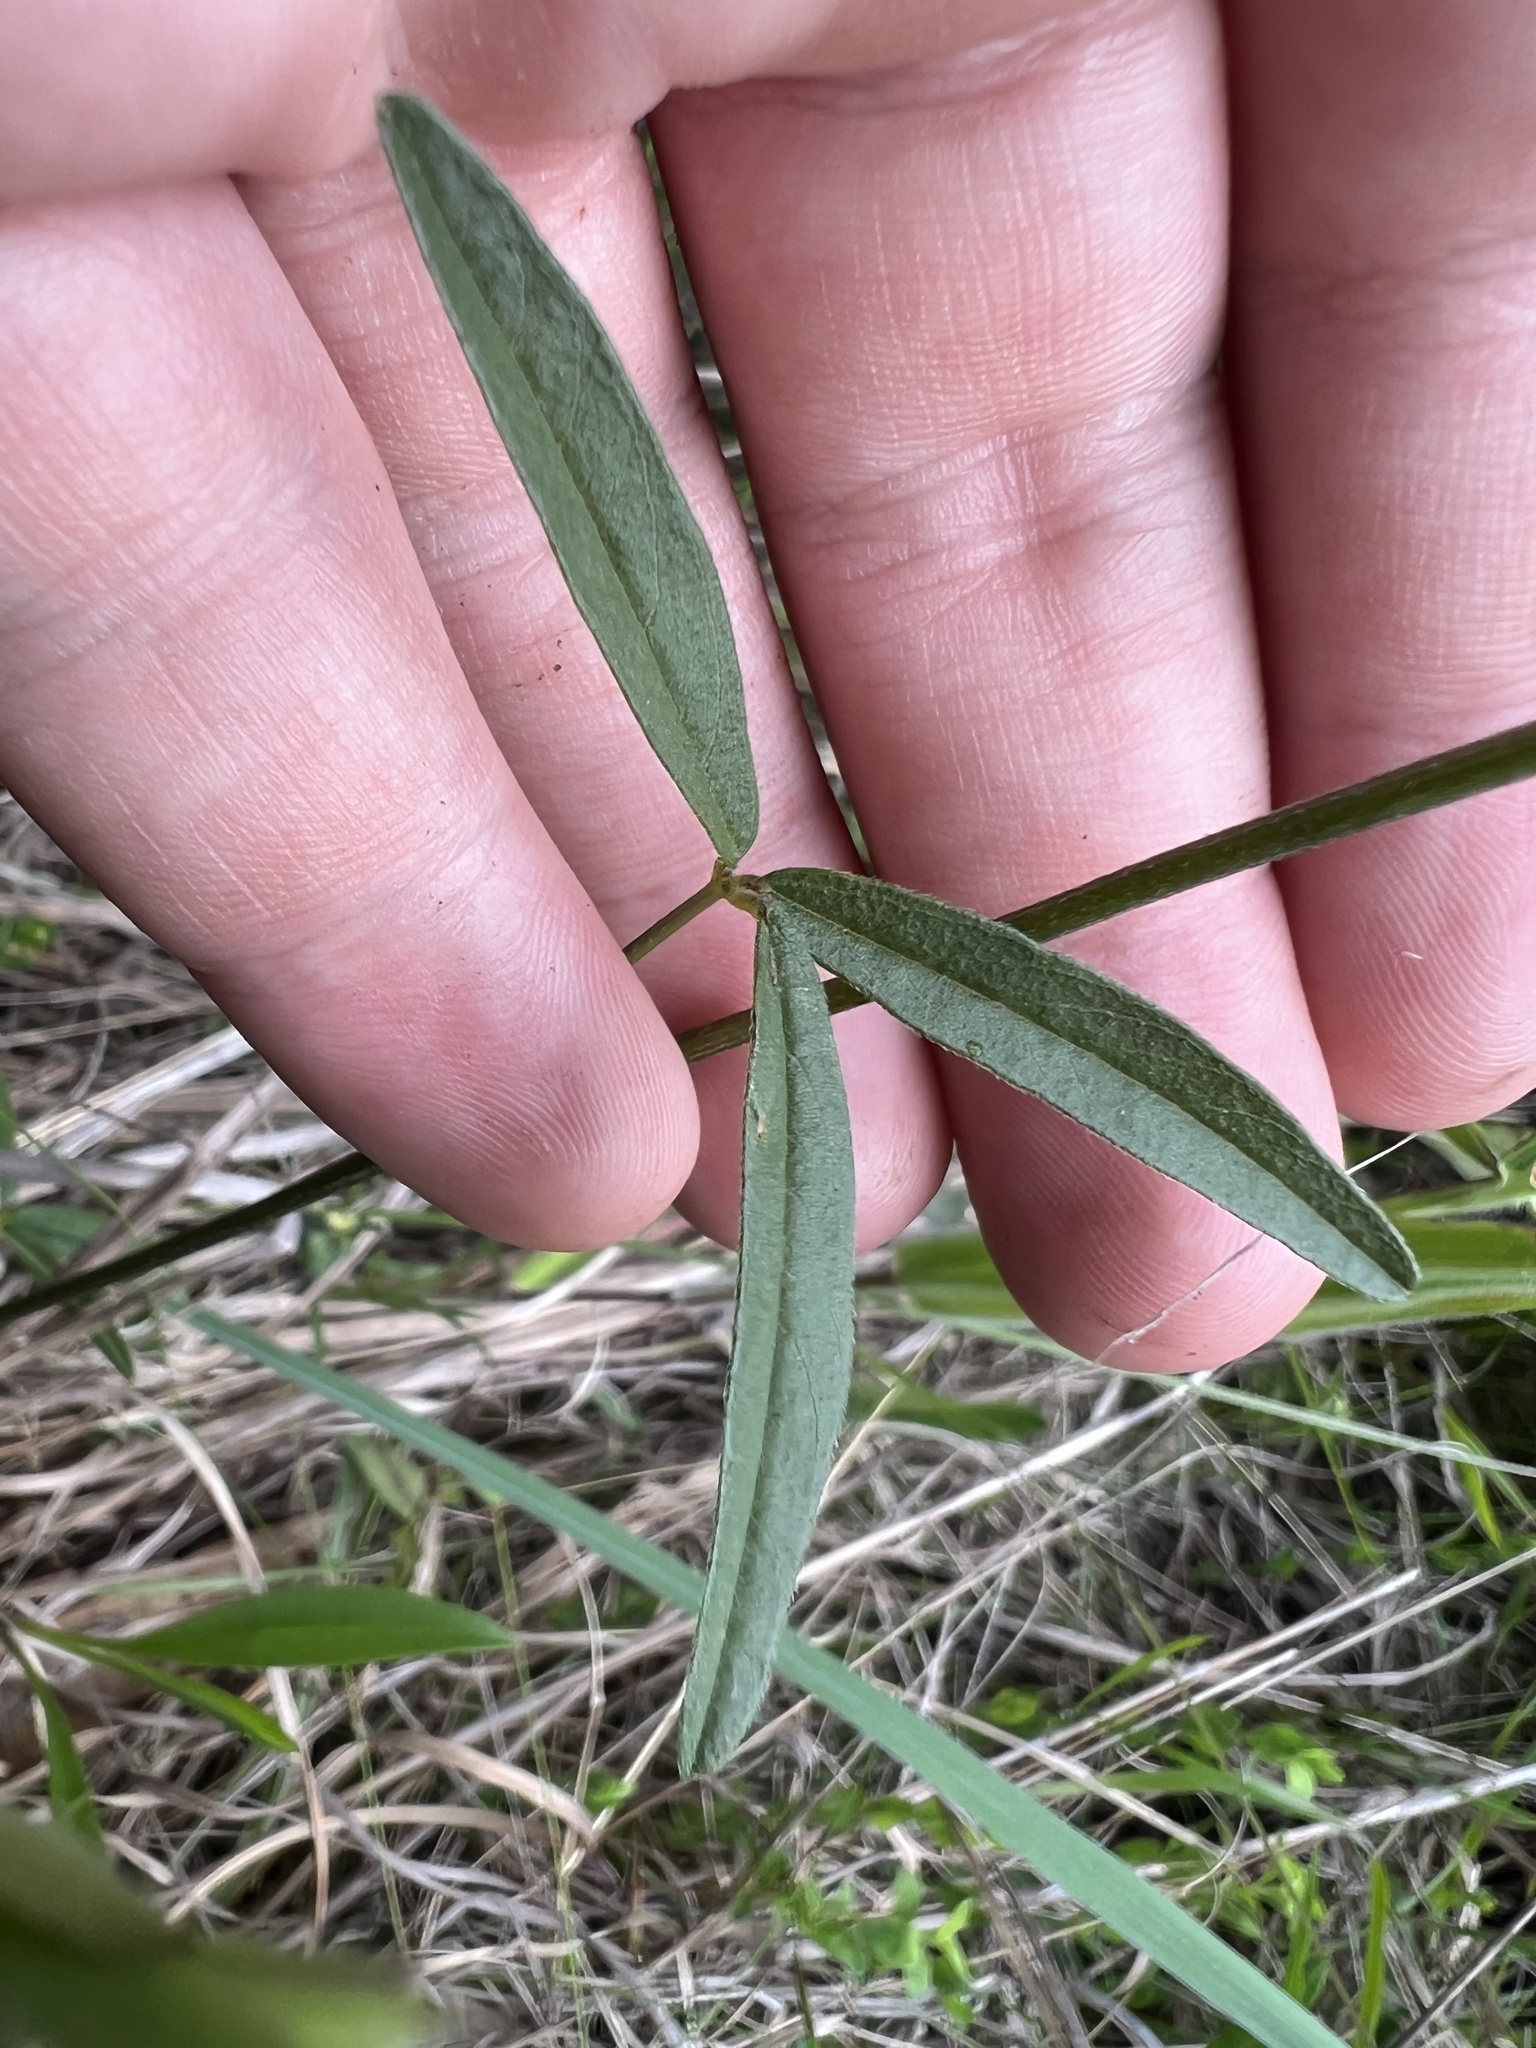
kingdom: Plantae
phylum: Tracheophyta
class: Magnoliopsida
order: Fabales
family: Fabaceae
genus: Orbexilum
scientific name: Orbexilum pedunculatum
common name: Sampson's snakeroot
